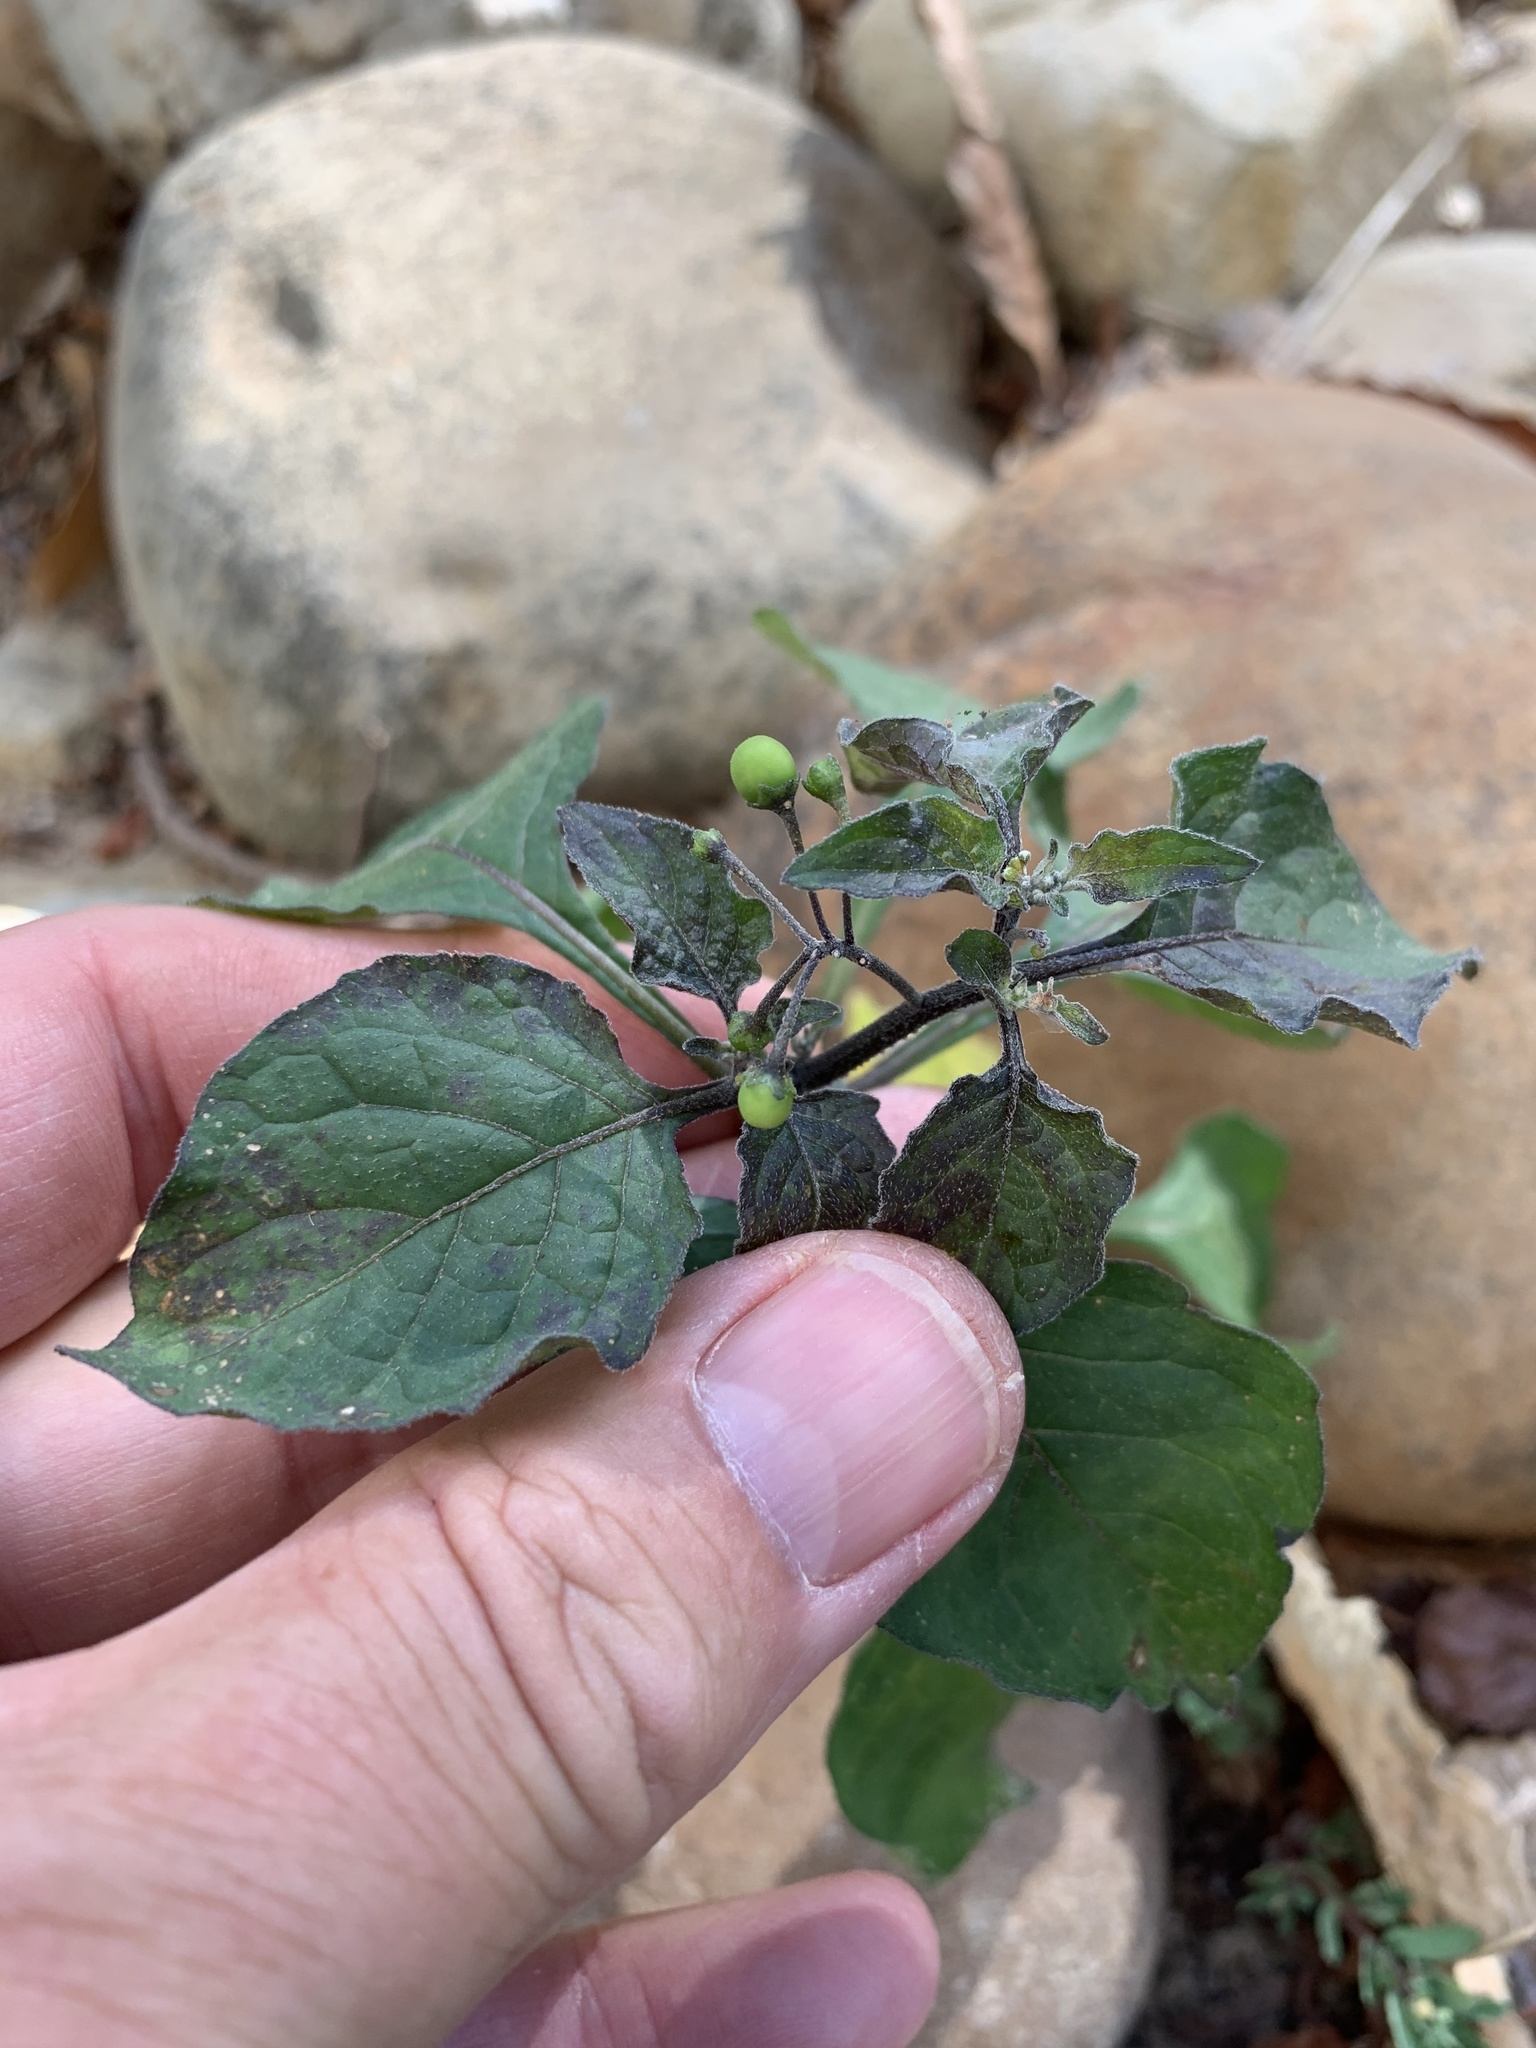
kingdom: Plantae
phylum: Tracheophyta
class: Magnoliopsida
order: Solanales
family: Solanaceae
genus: Solanum
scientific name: Solanum nigrum
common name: Black nightshade
